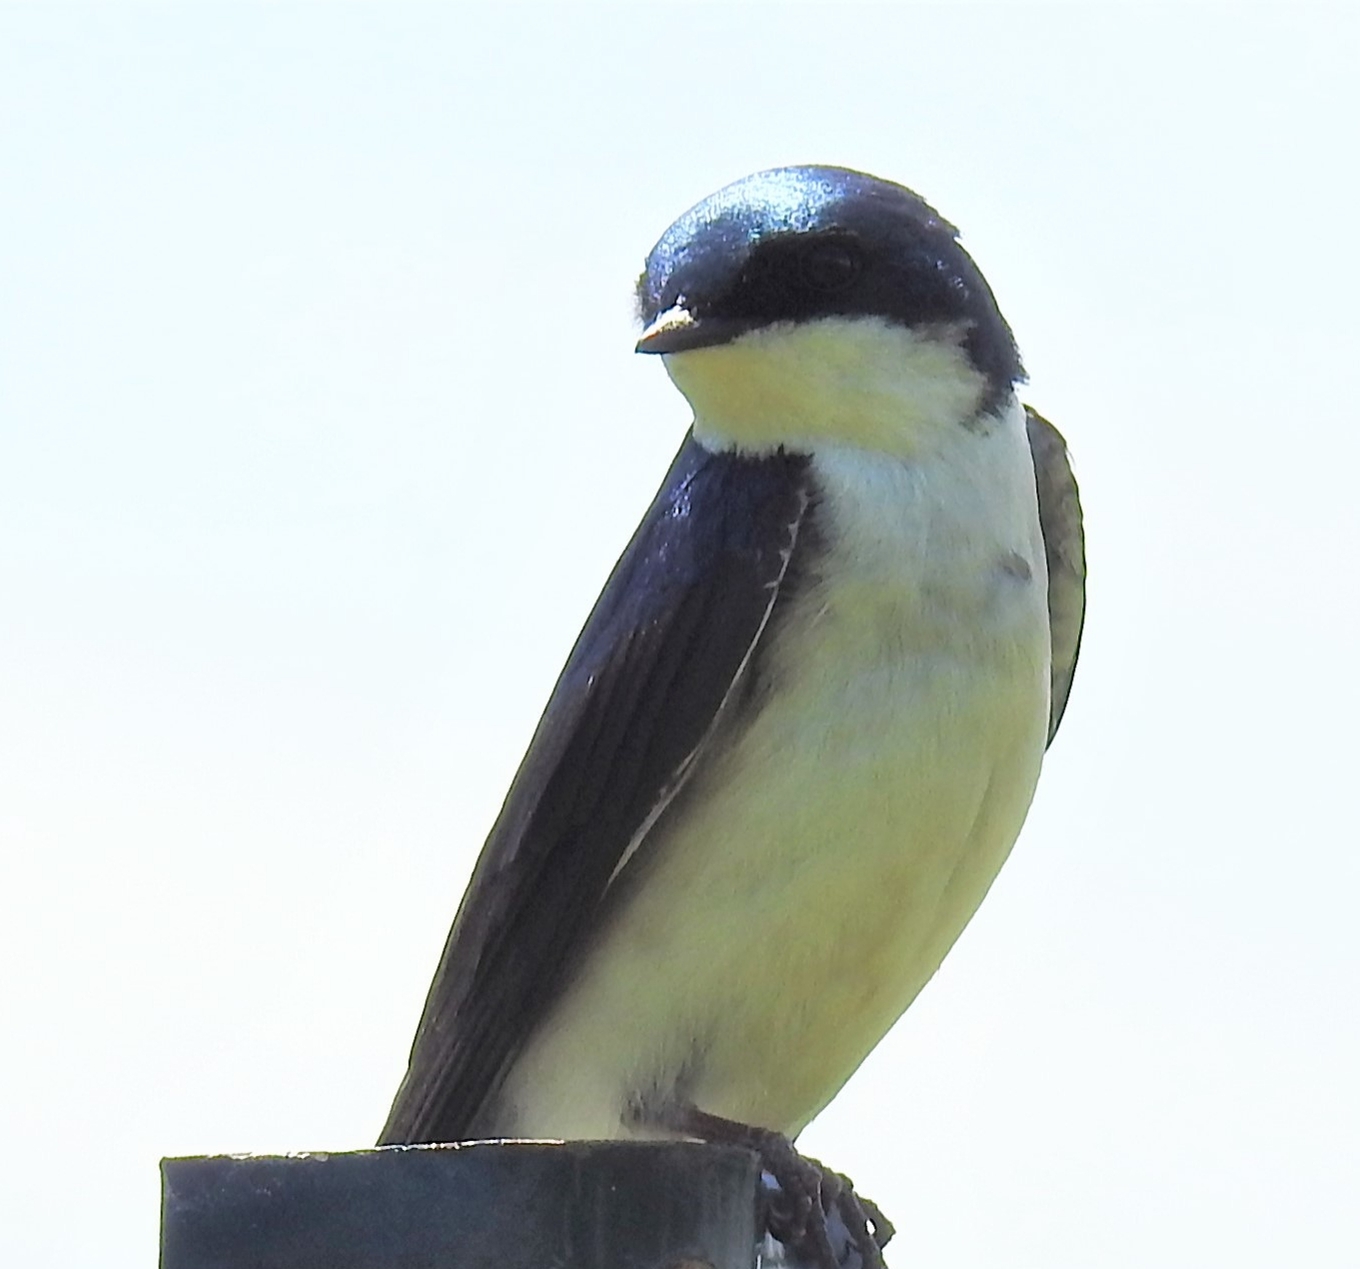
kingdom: Animalia
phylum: Chordata
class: Aves
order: Passeriformes
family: Hirundinidae
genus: Tachycineta
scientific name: Tachycineta bicolor
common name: Tree swallow
